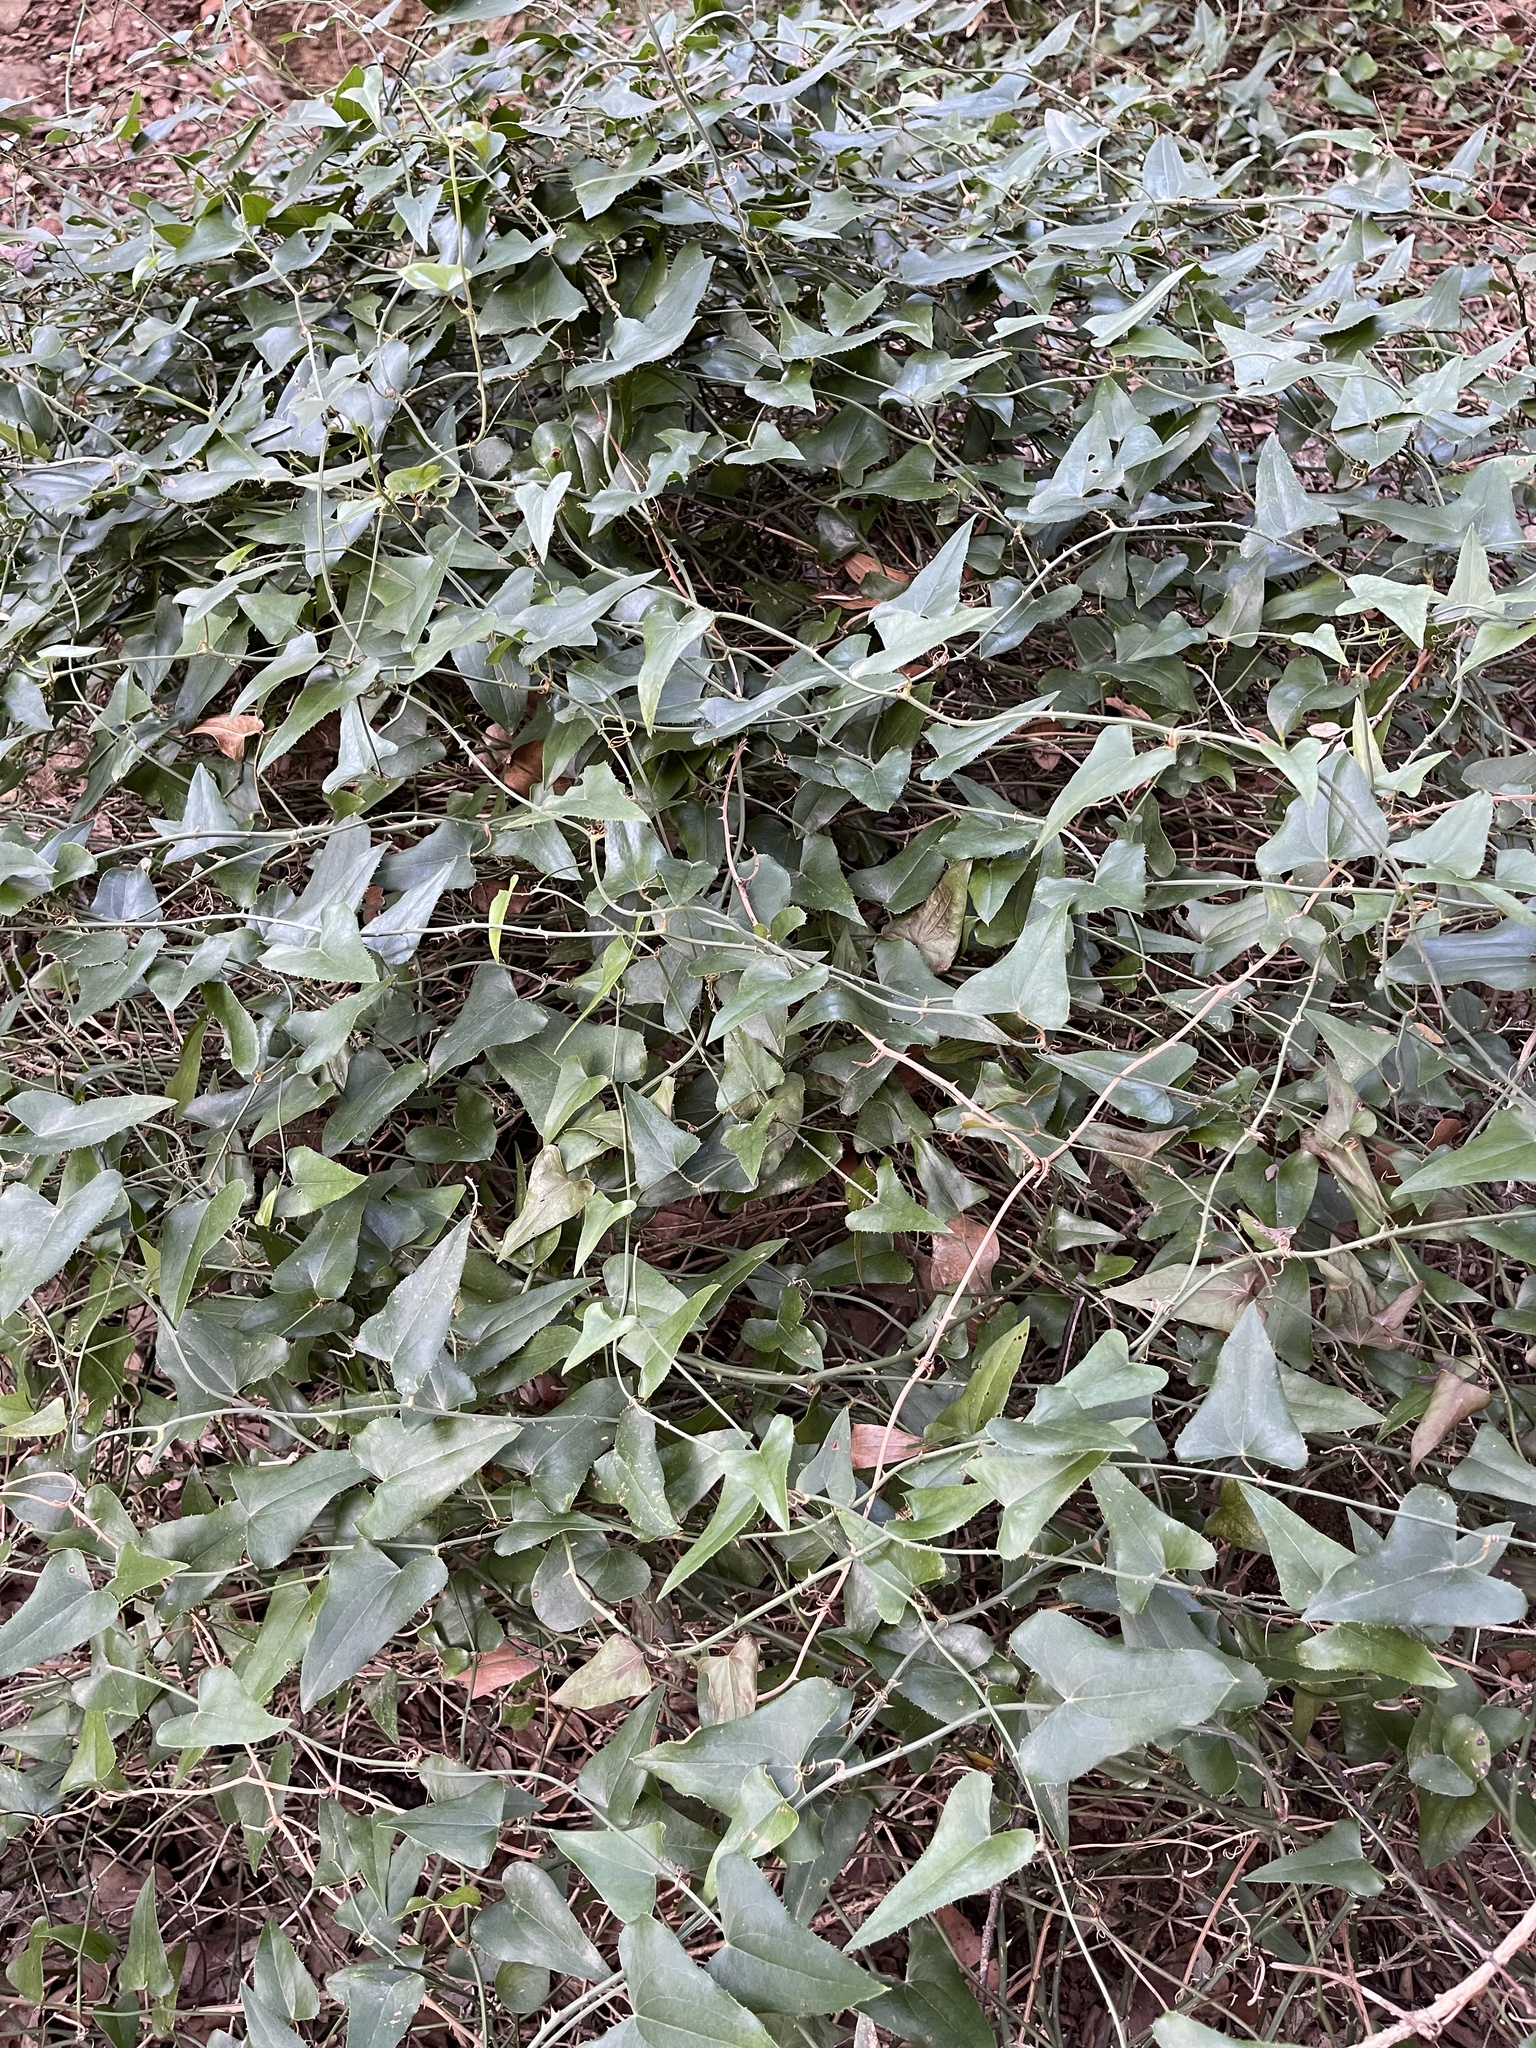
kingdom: Plantae
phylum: Tracheophyta
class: Liliopsida
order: Liliales
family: Smilacaceae
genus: Smilax
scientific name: Smilax aspera
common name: Common smilax
